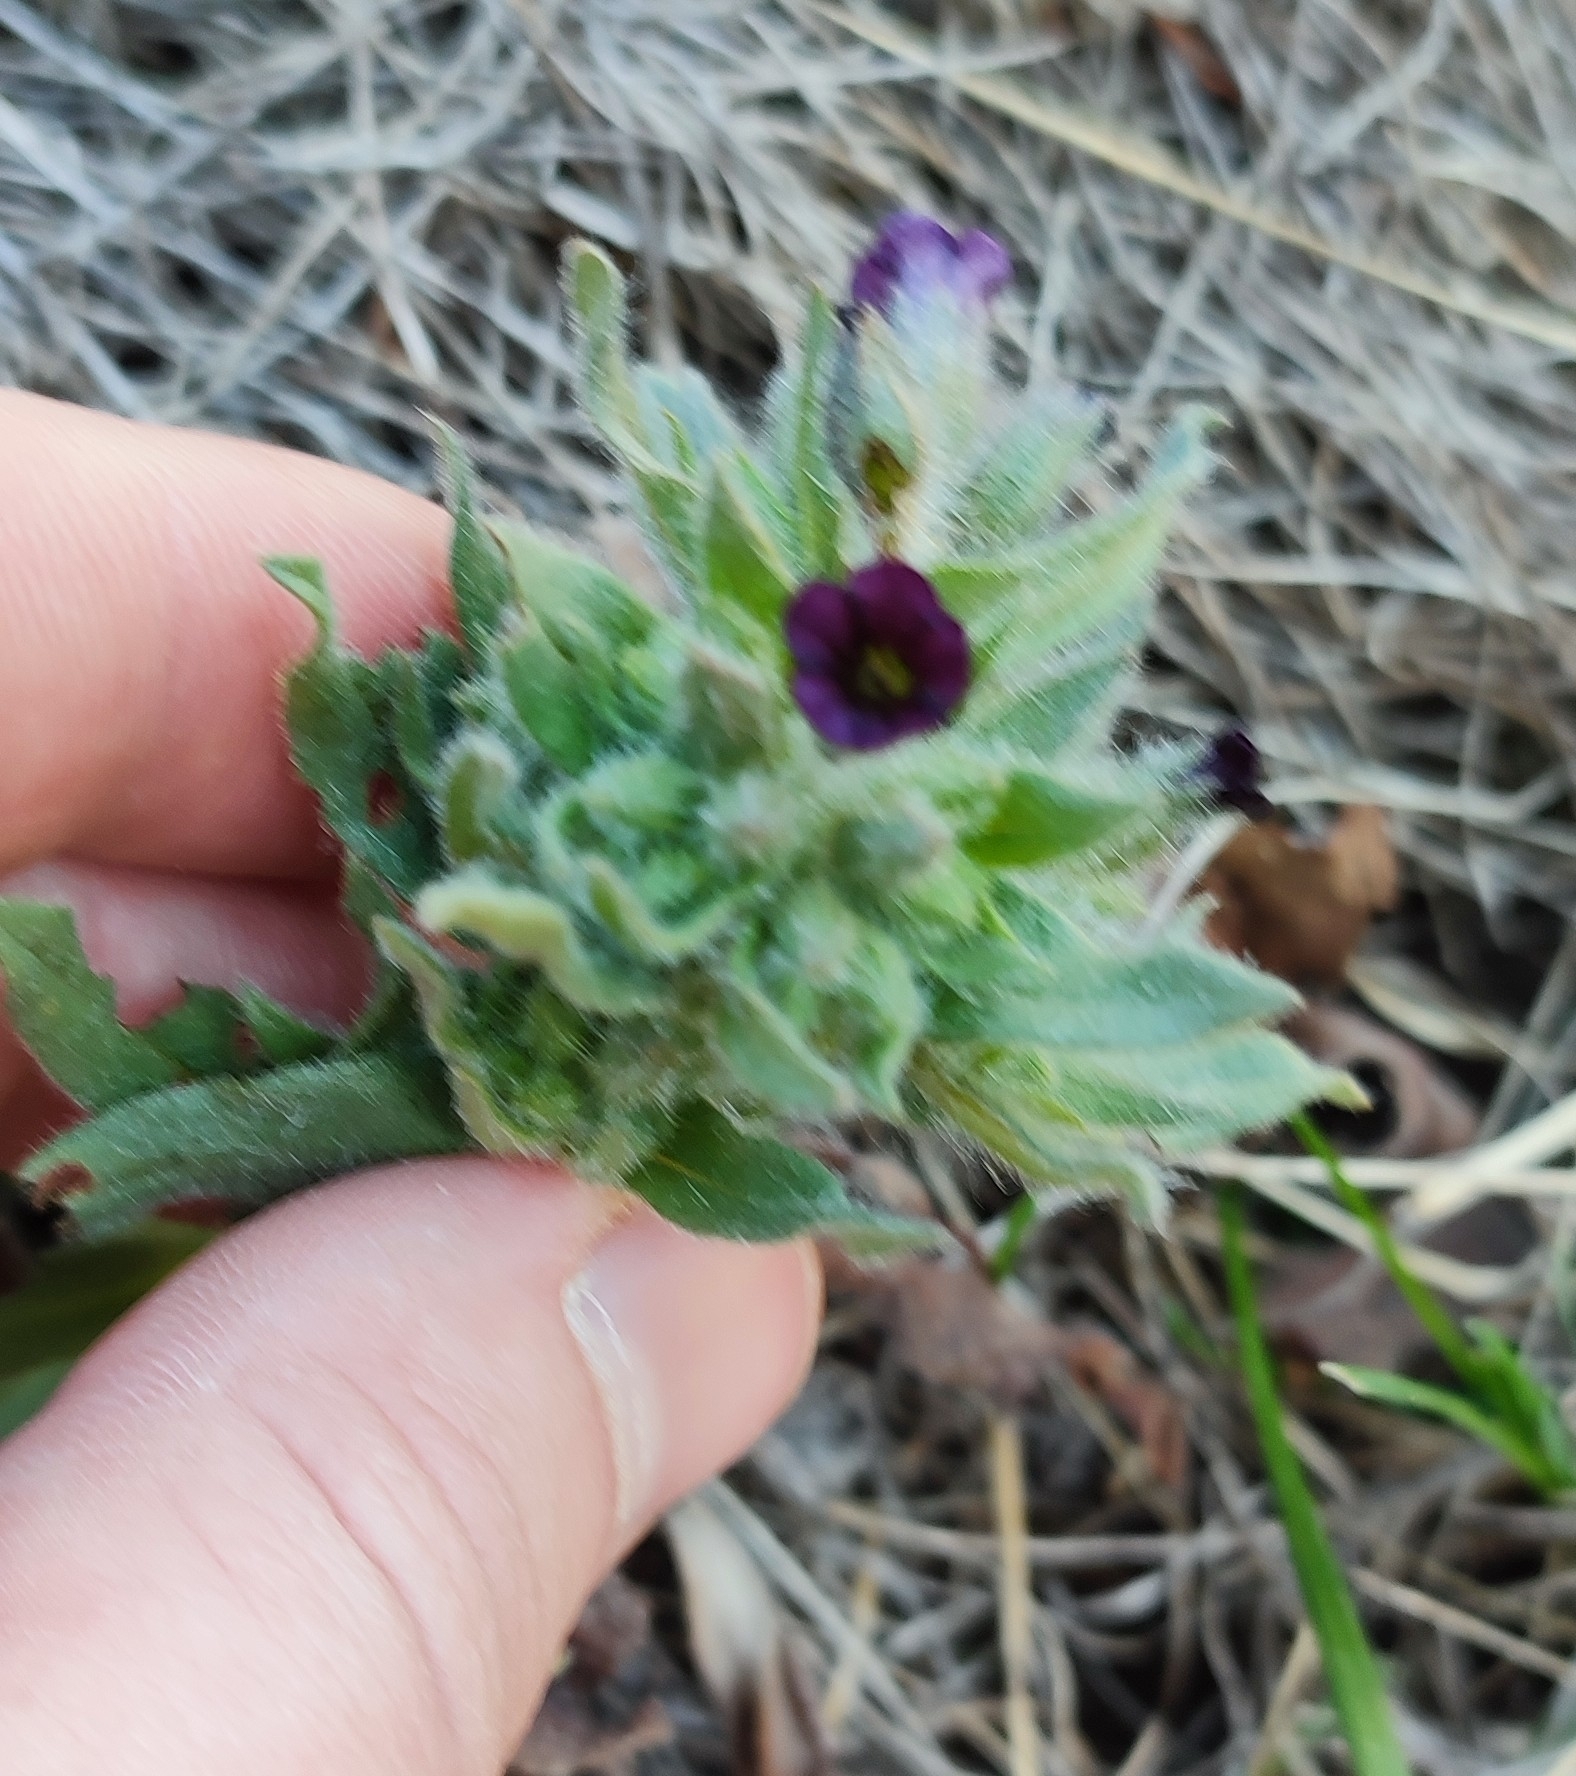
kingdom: Plantae
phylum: Tracheophyta
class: Magnoliopsida
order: Boraginales
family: Boraginaceae
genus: Nonea
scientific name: Nonea pulla
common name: Brown nonea
